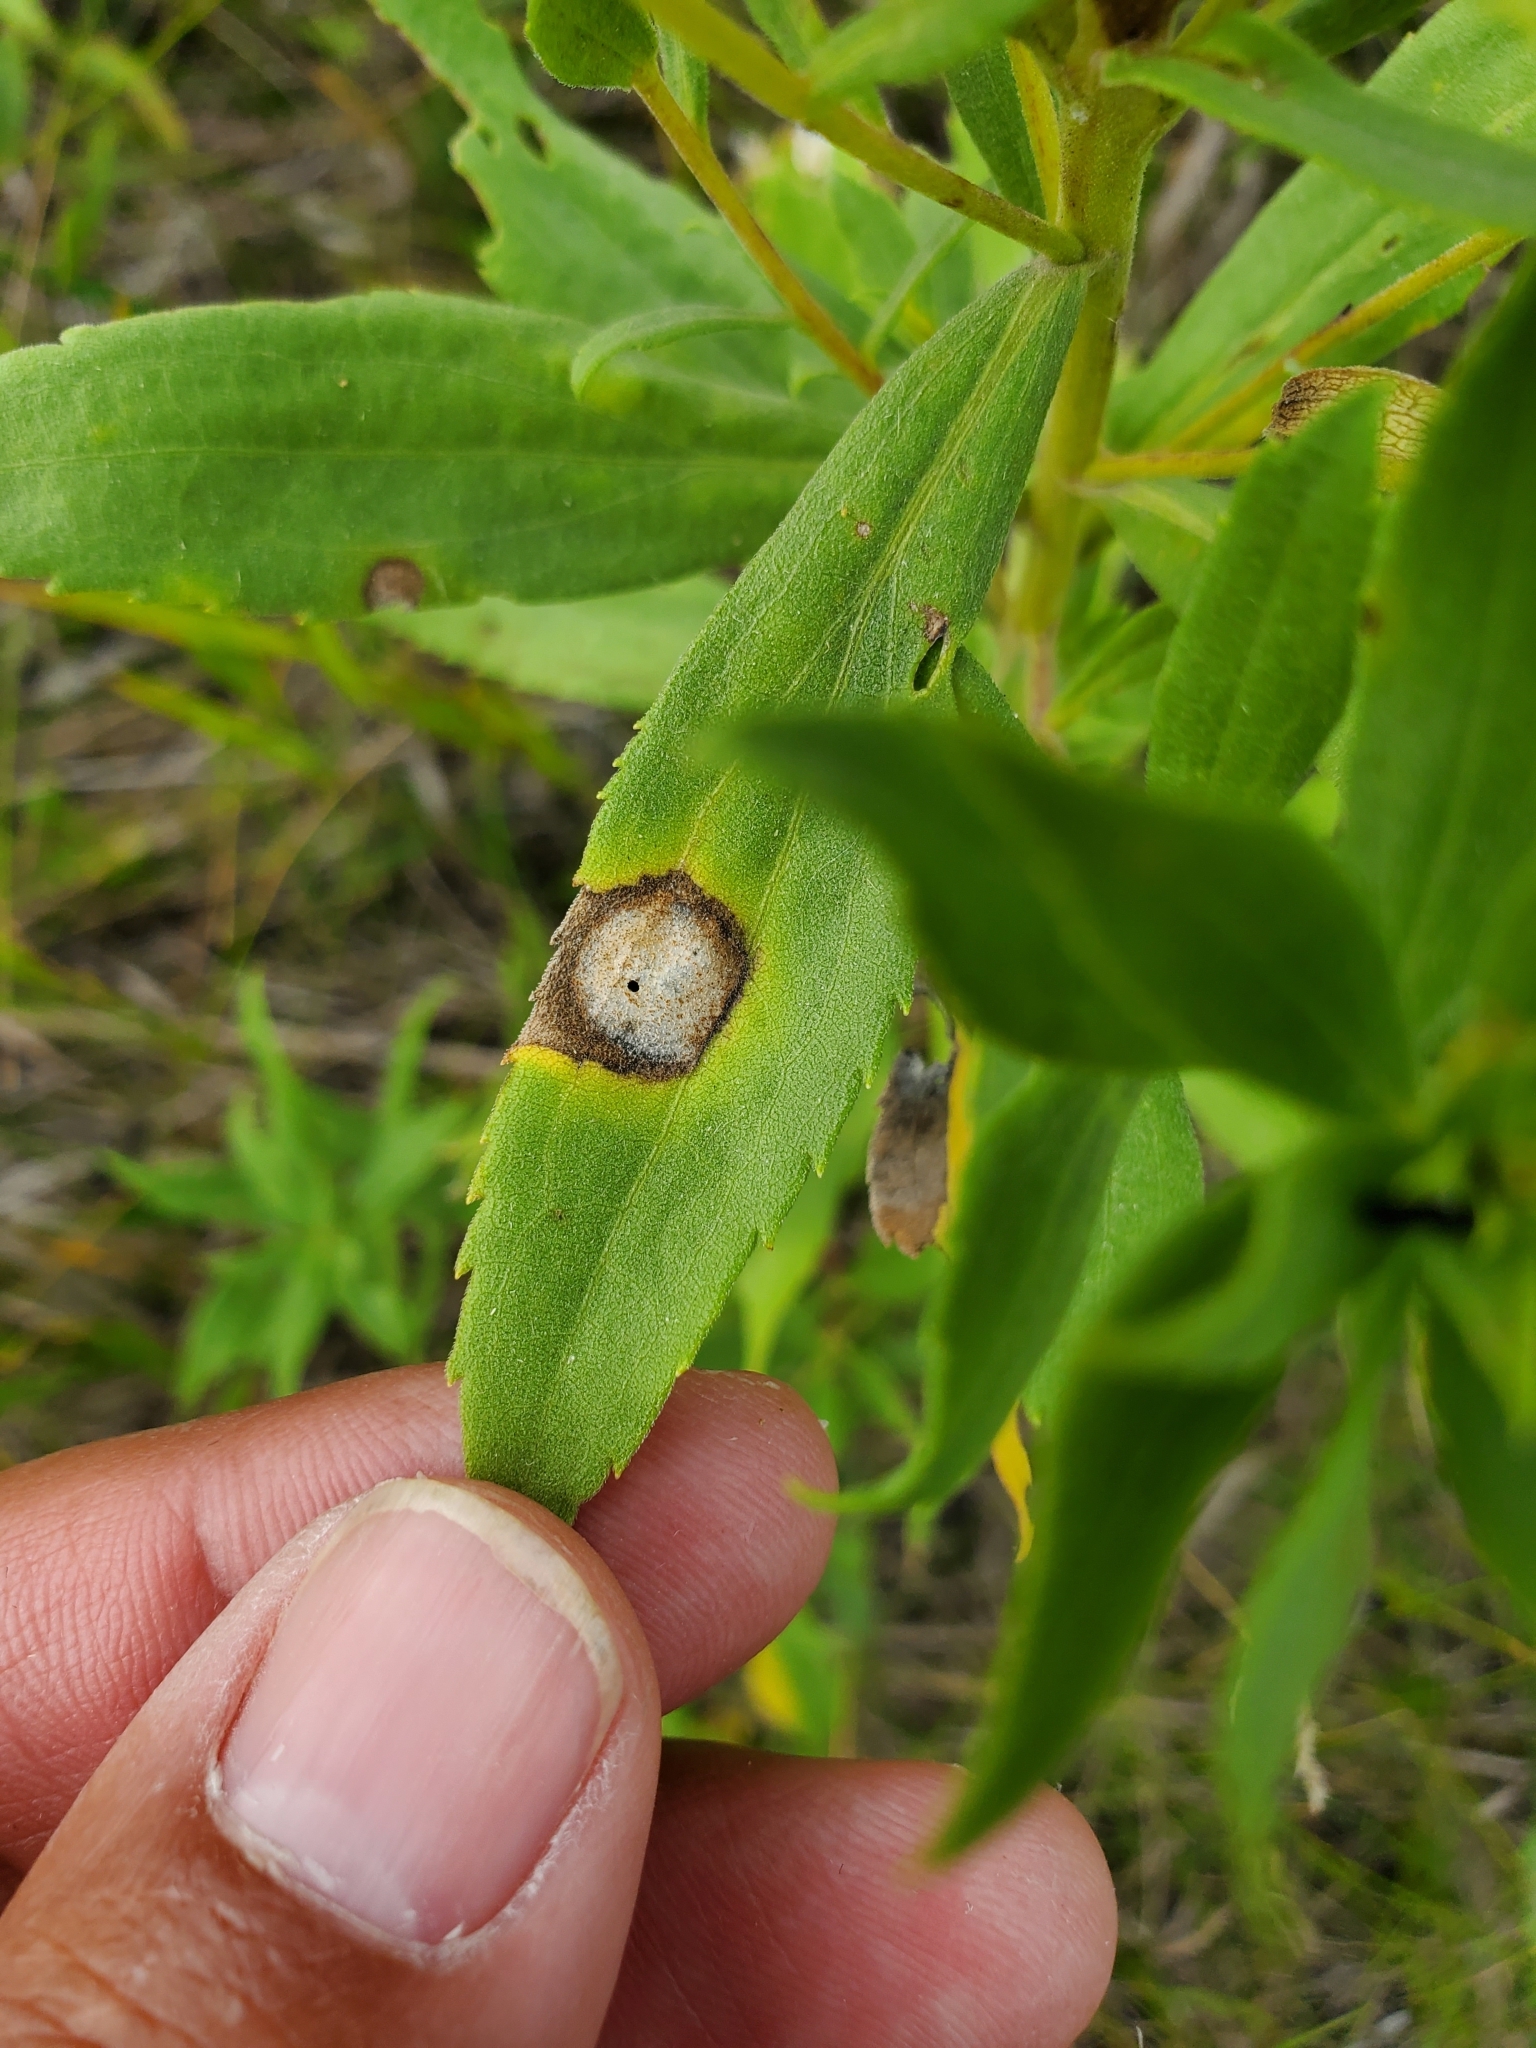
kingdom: Animalia
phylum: Arthropoda
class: Insecta
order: Diptera
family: Cecidomyiidae
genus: Asteromyia
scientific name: Asteromyia carbonifera
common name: Carbonifera goldenrod gall midge
